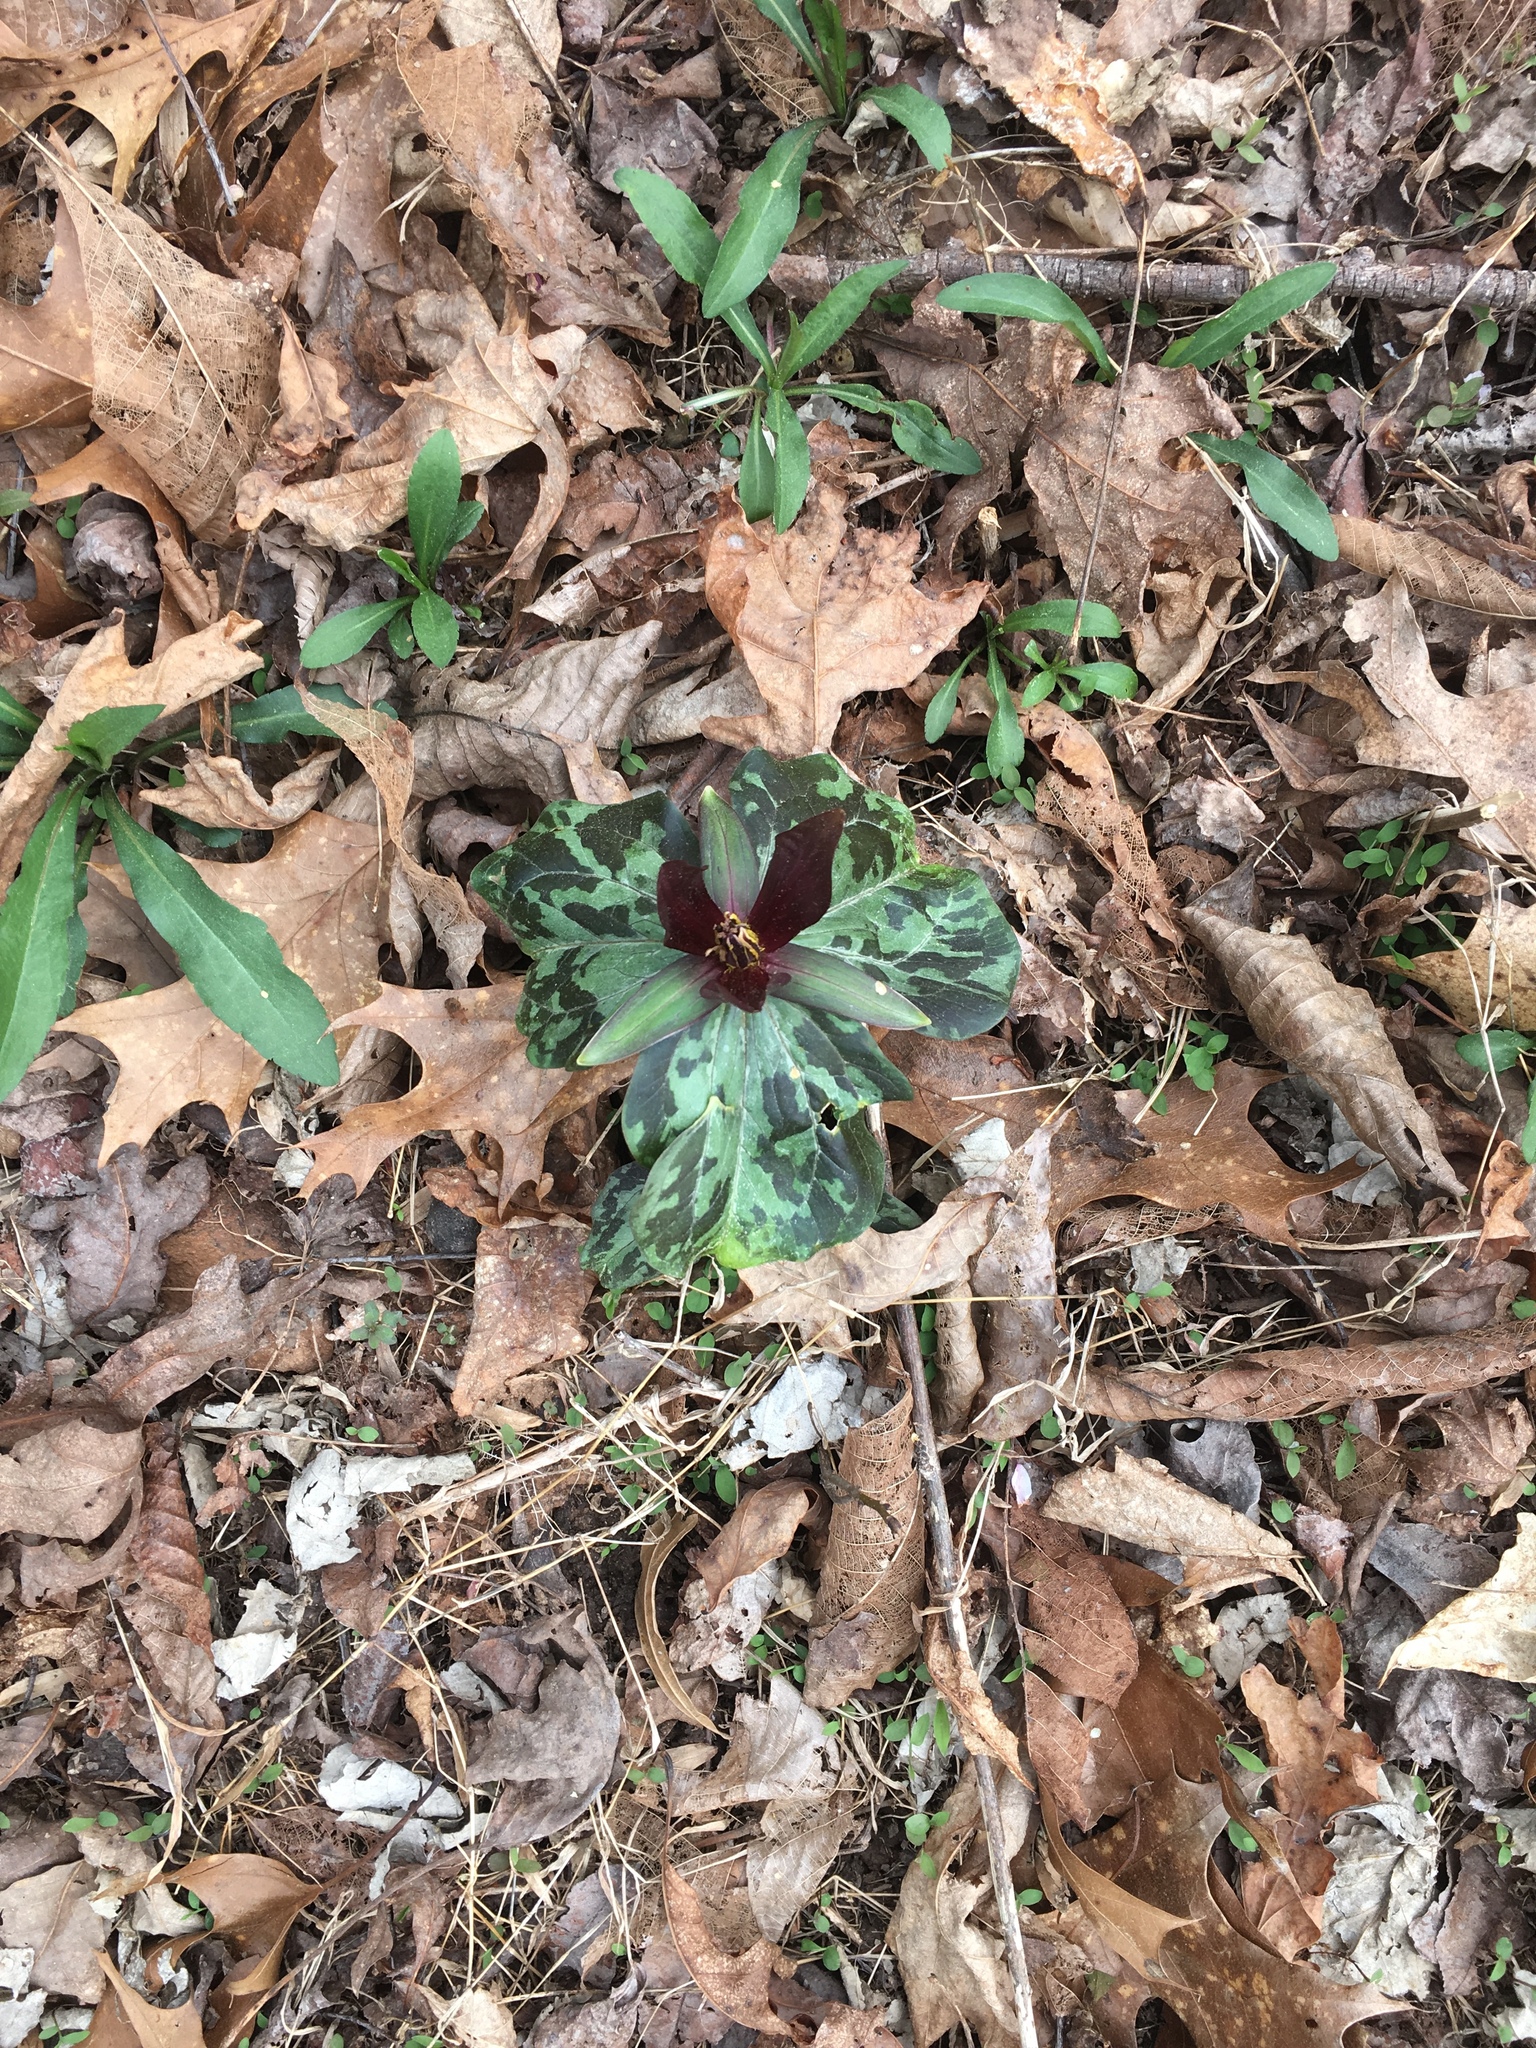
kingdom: Plantae
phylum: Tracheophyta
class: Liliopsida
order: Liliales
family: Melanthiaceae
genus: Trillium
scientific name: Trillium cuneatum
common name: Cuneate trillium
